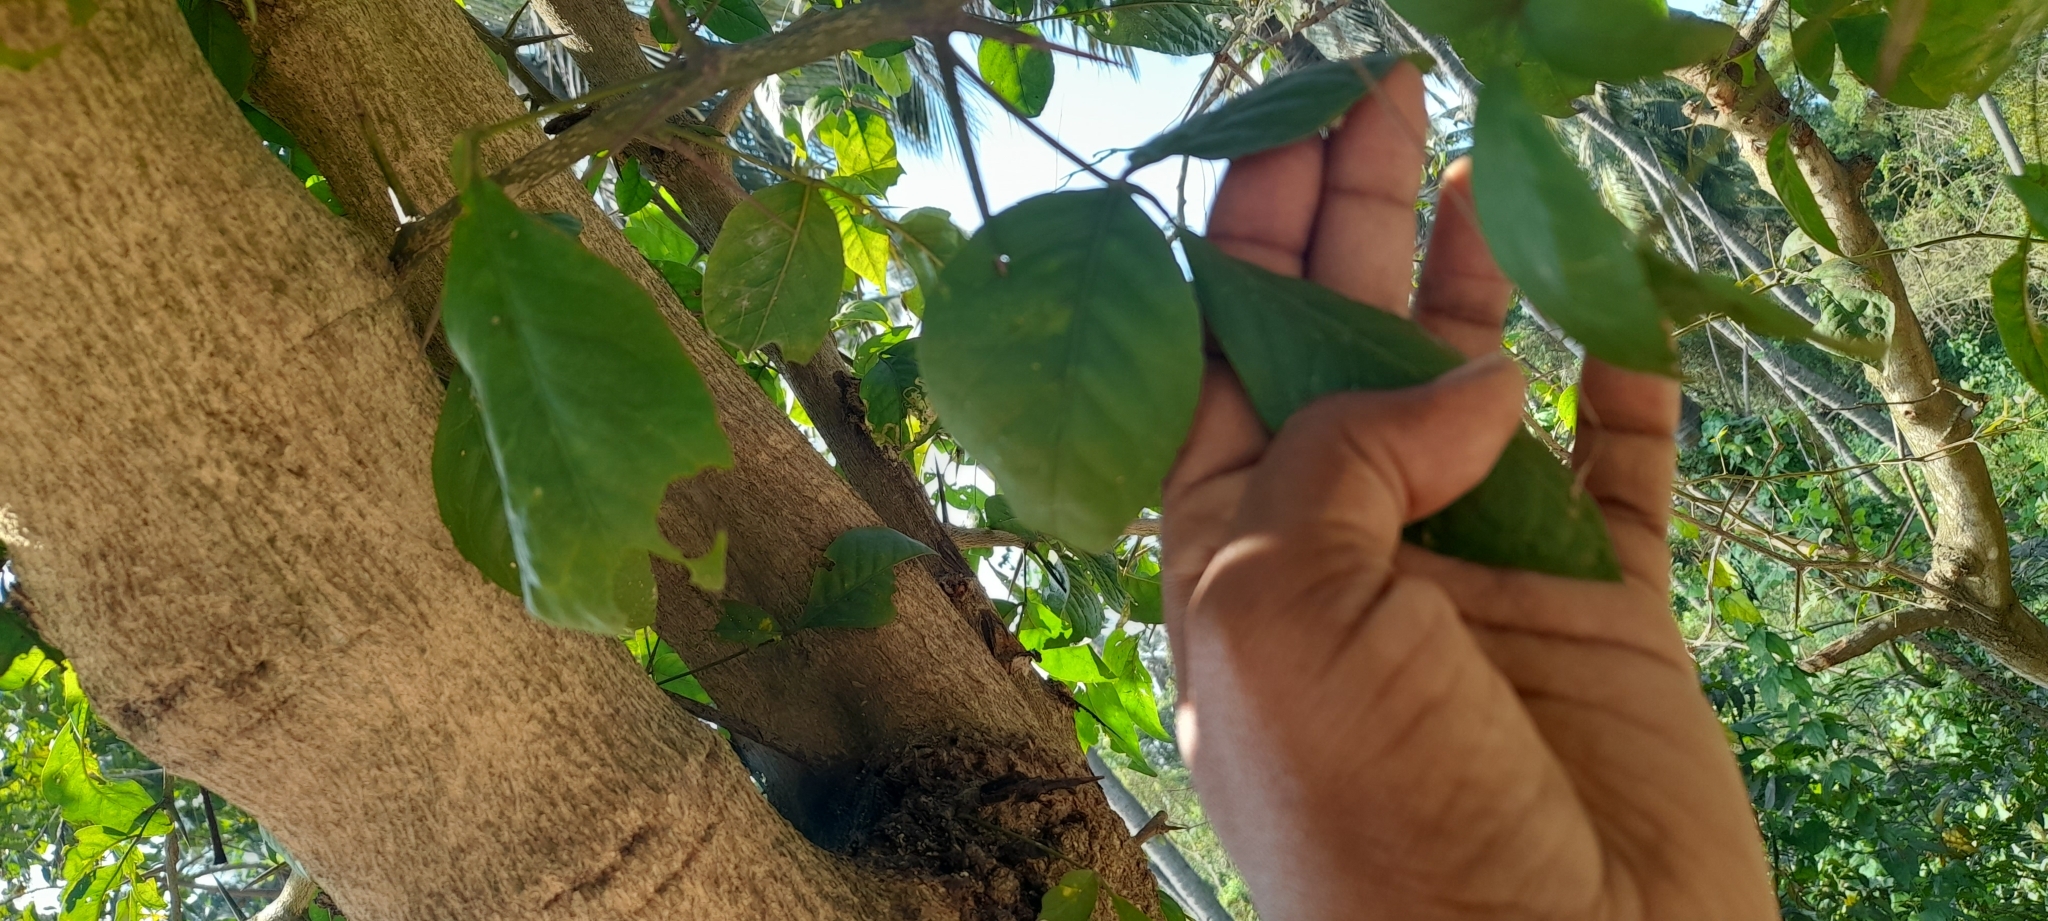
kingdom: Plantae
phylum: Tracheophyta
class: Magnoliopsida
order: Sapindales
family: Rutaceae
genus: Aegle
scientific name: Aegle marmelos
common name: Bael
